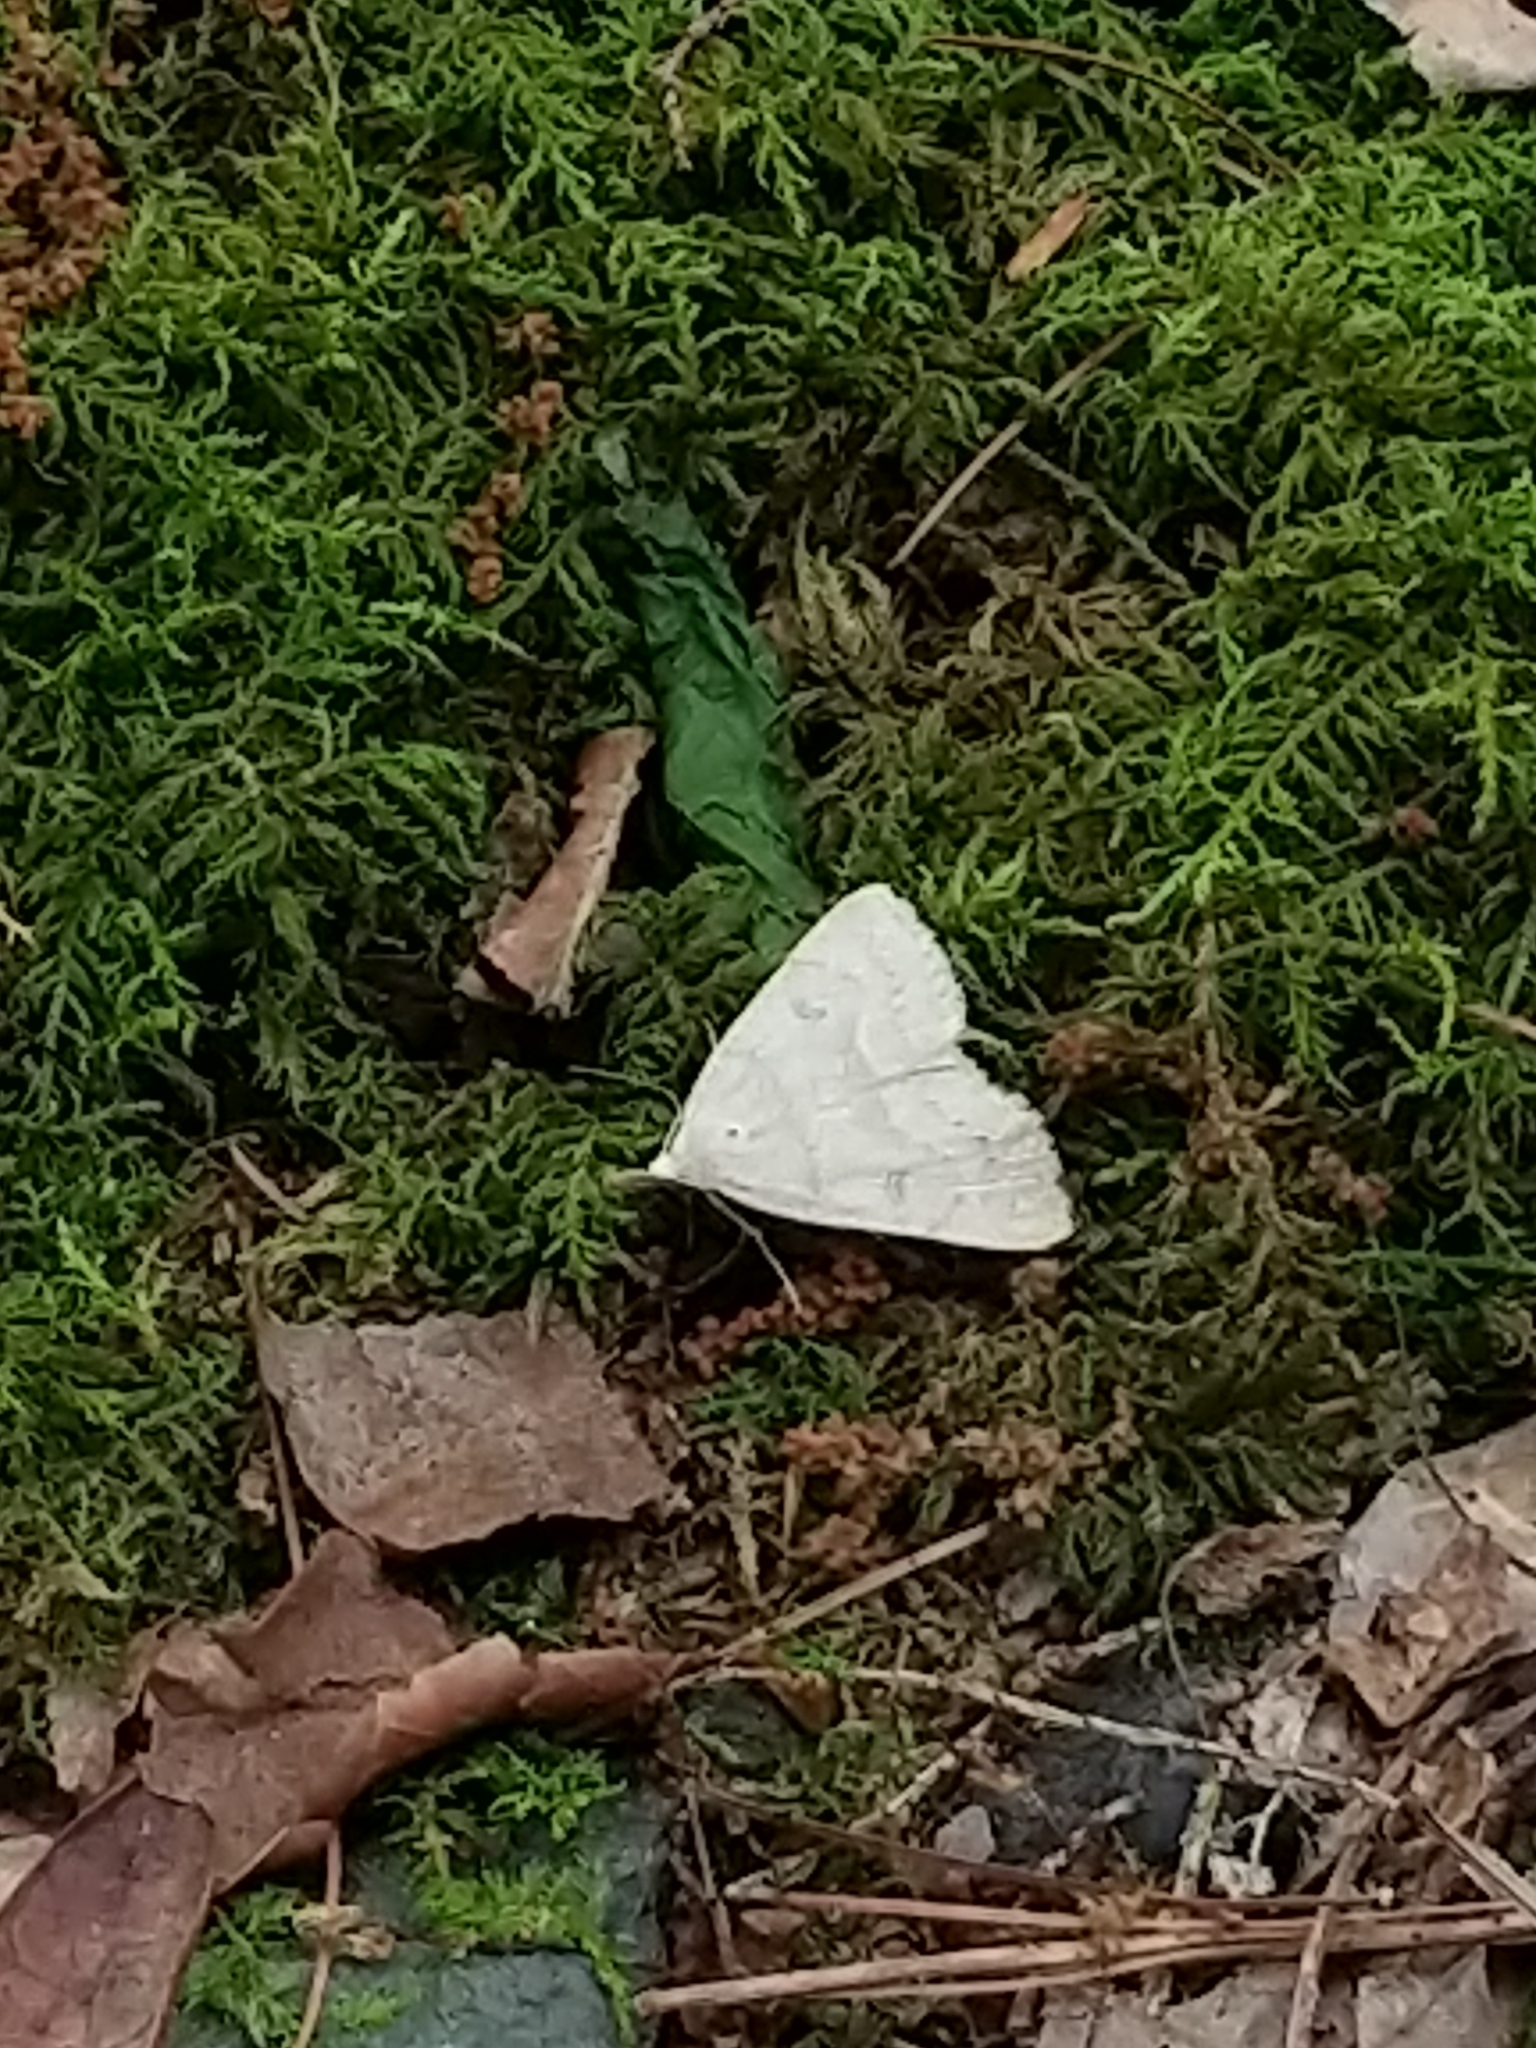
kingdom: Animalia
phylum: Arthropoda
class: Insecta
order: Lepidoptera
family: Erebidae
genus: Macrochilo
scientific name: Macrochilo morbidalis
